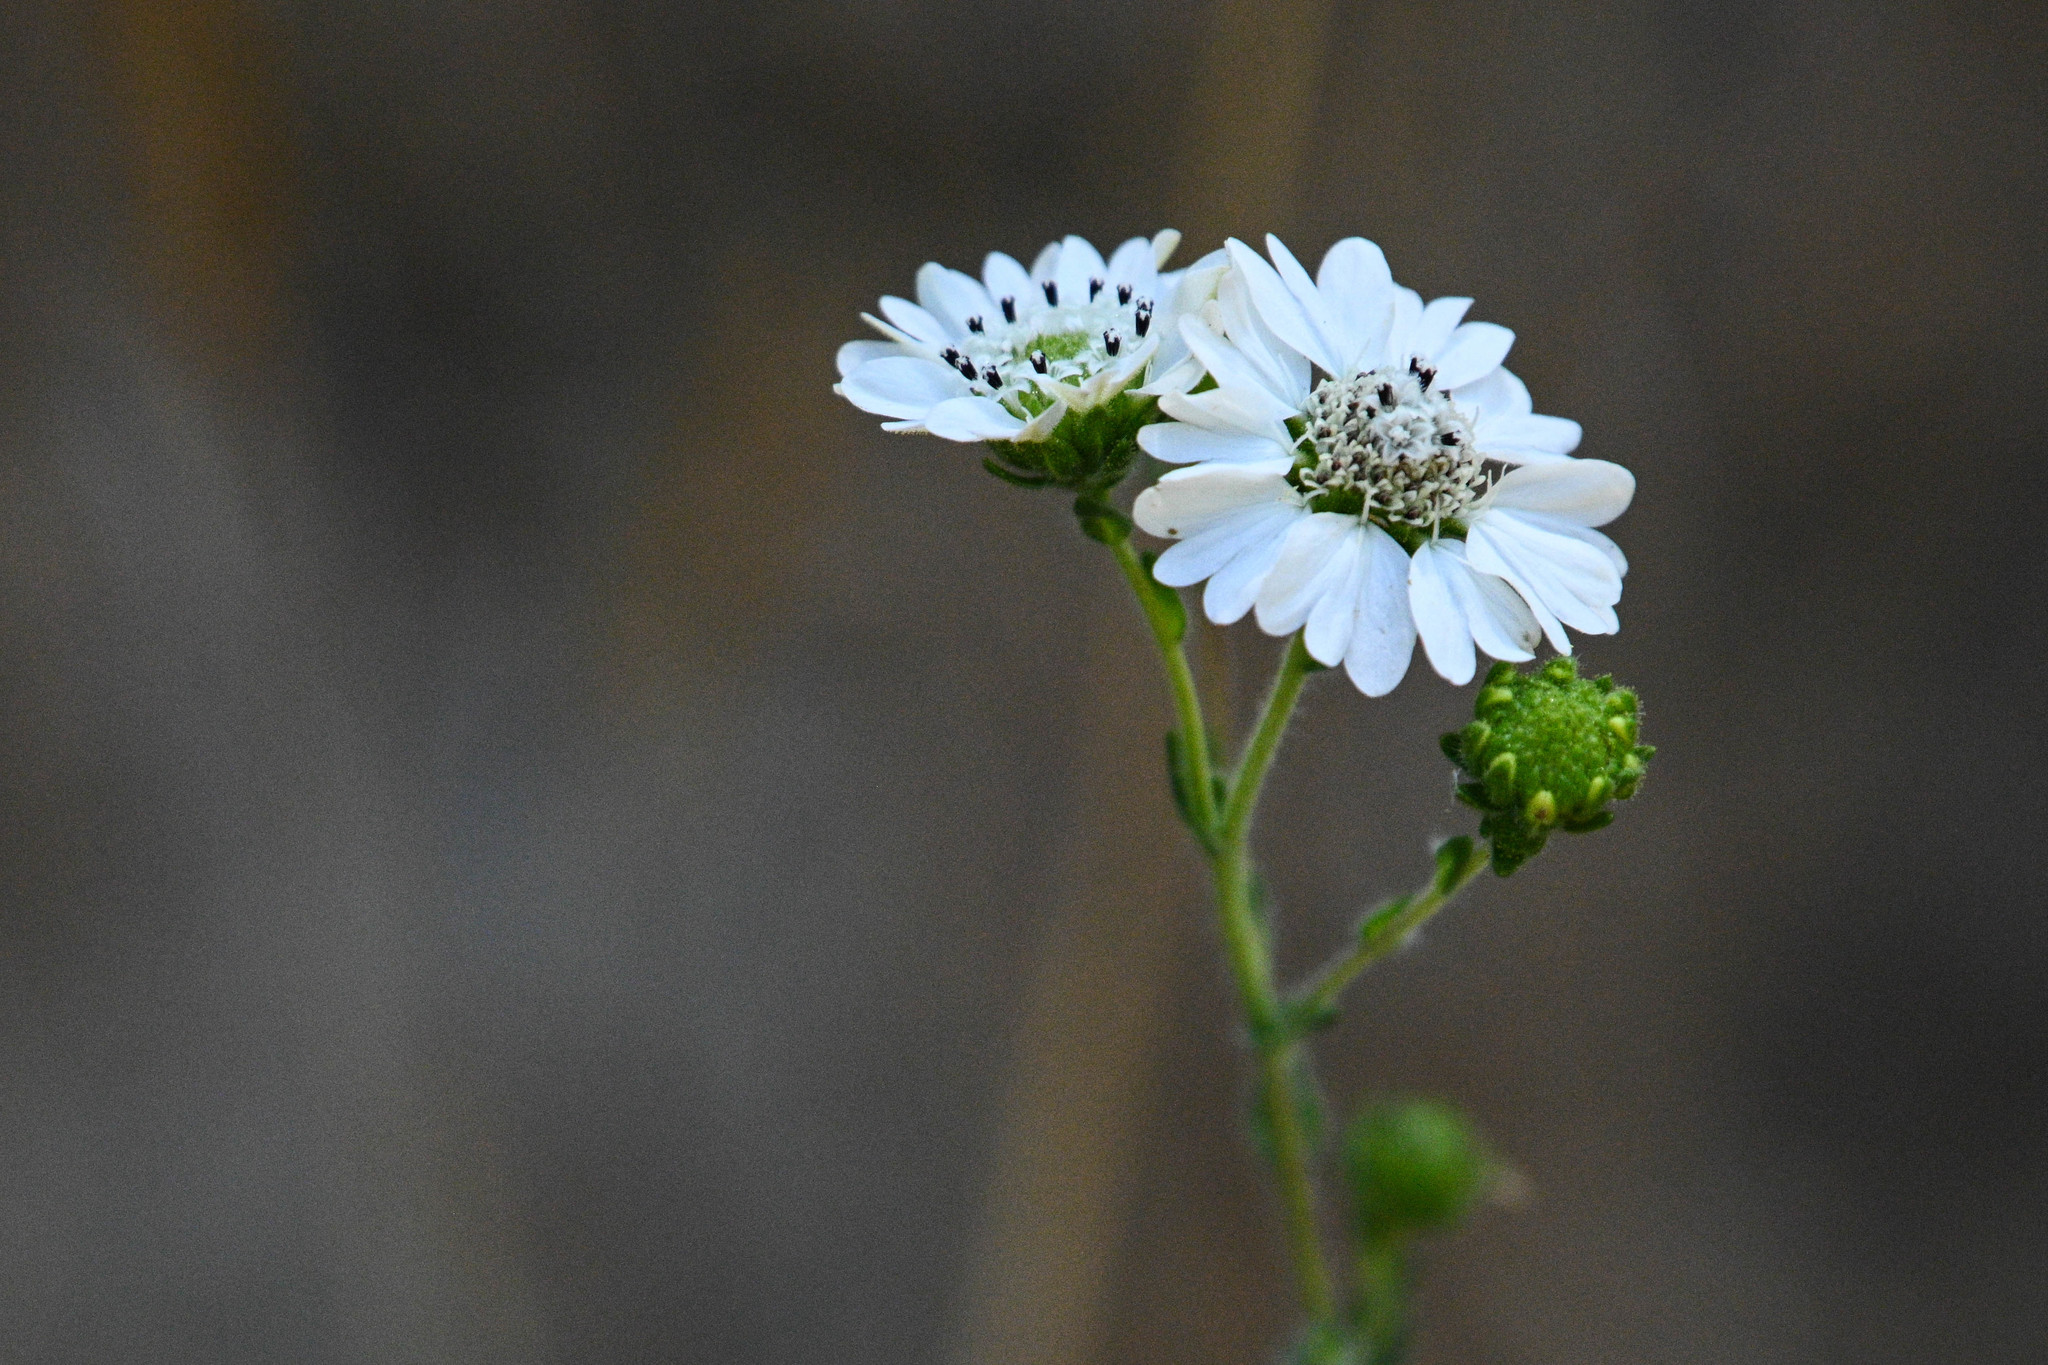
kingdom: Plantae
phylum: Tracheophyta
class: Magnoliopsida
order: Asterales
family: Asteraceae
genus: Hemizonia
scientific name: Hemizonia congesta
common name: Hayfield tarweed
